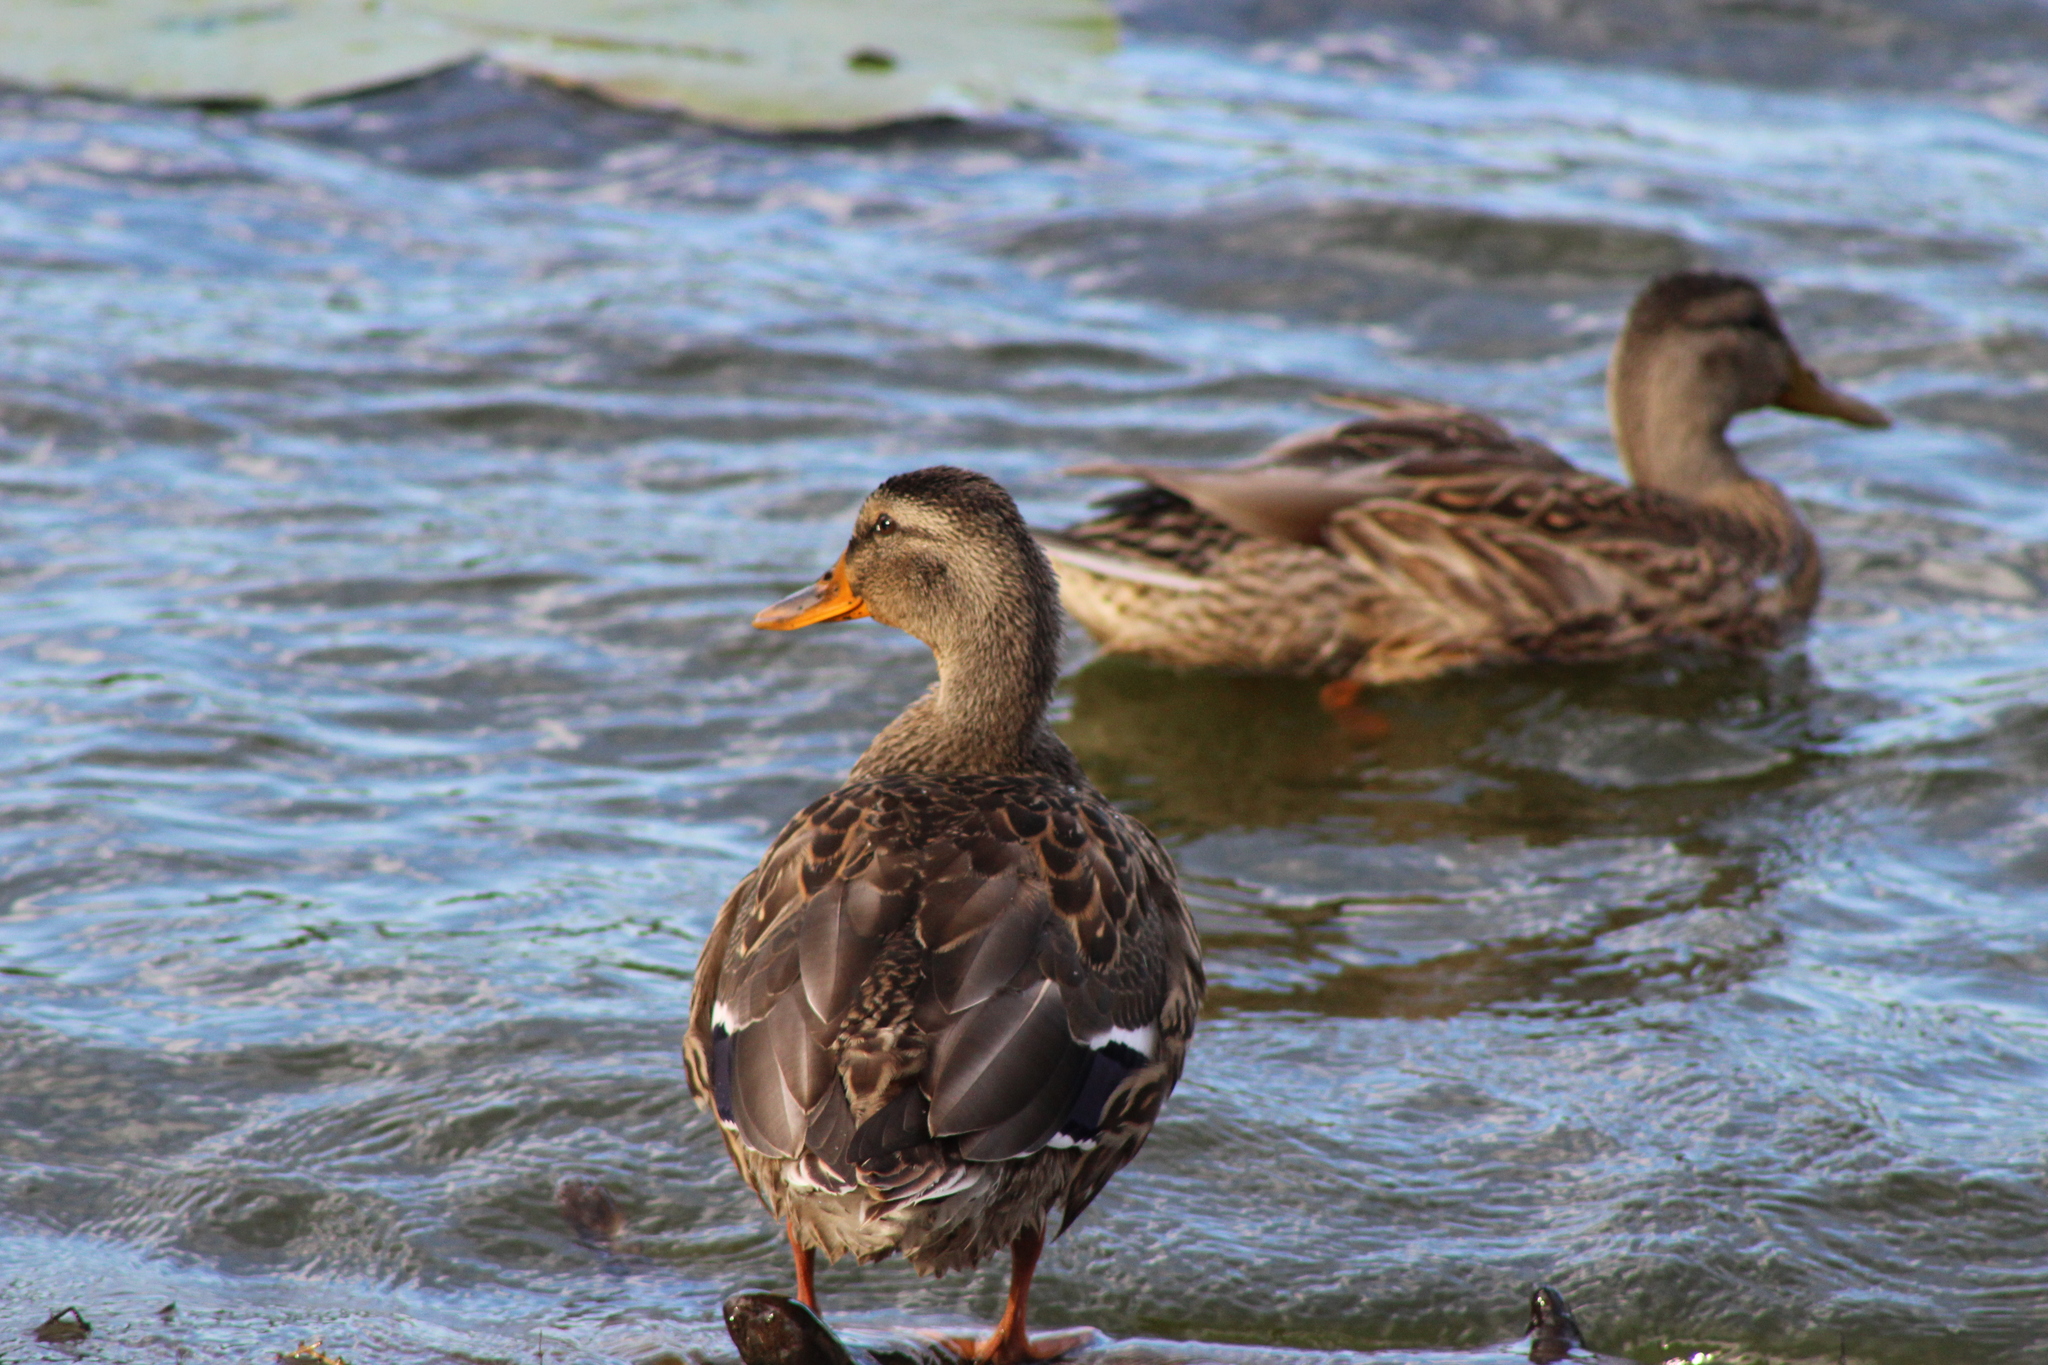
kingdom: Animalia
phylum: Chordata
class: Aves
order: Anseriformes
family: Anatidae
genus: Anas
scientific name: Anas platyrhynchos
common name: Mallard
